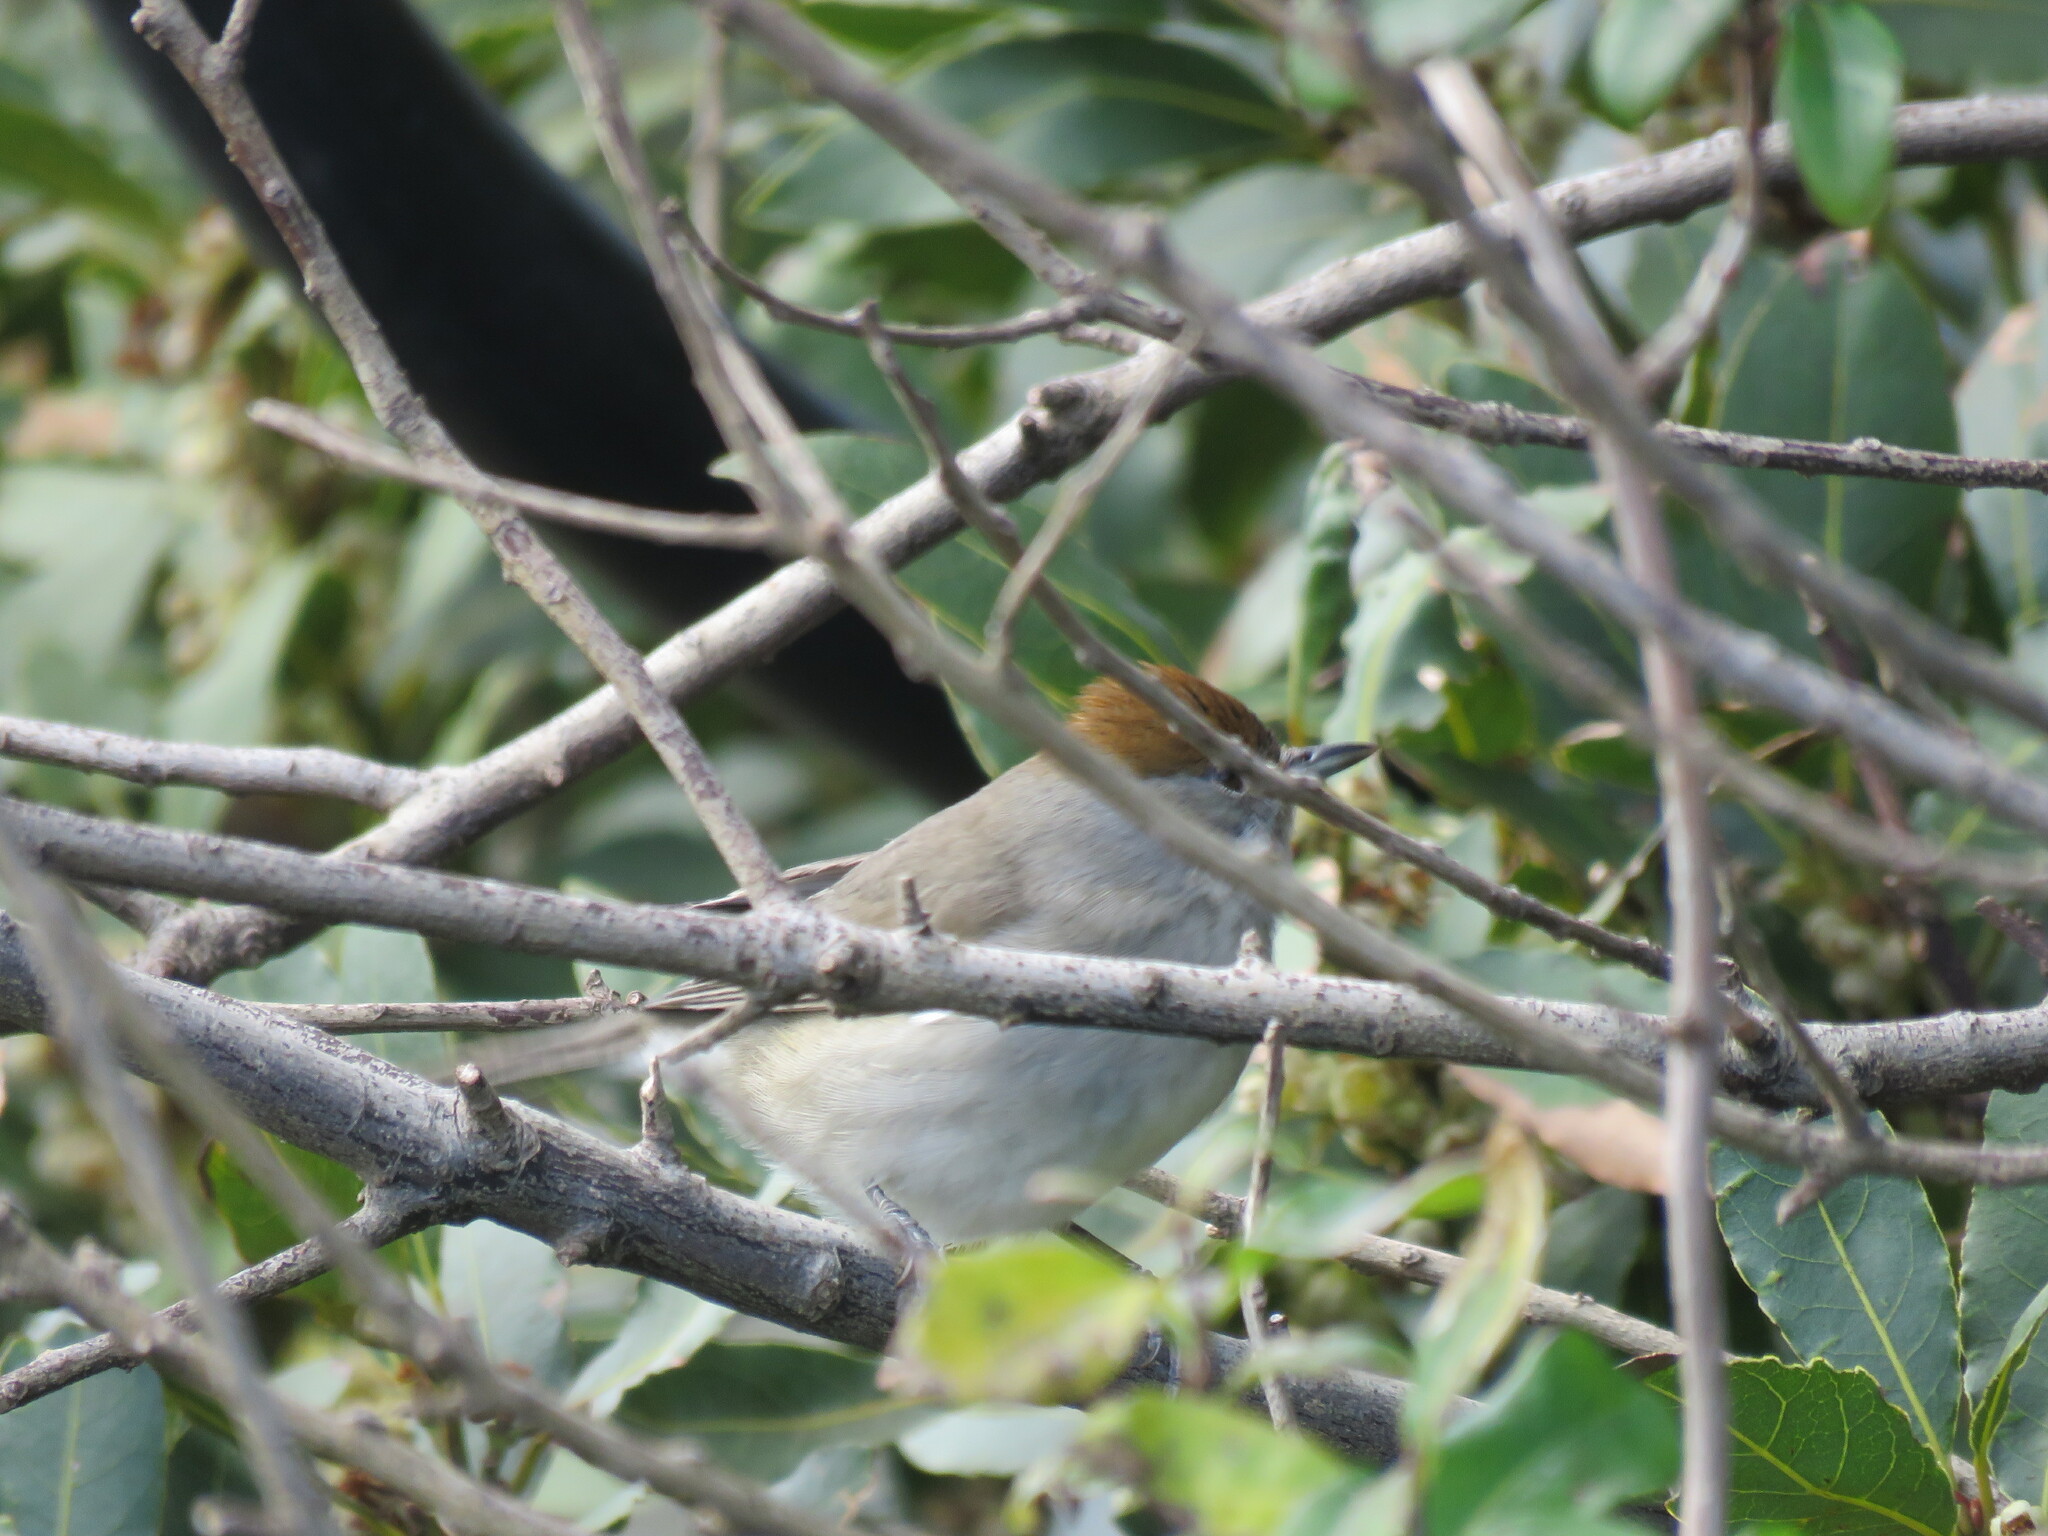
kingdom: Animalia
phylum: Chordata
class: Aves
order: Passeriformes
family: Sylviidae
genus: Sylvia
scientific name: Sylvia atricapilla
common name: Eurasian blackcap
